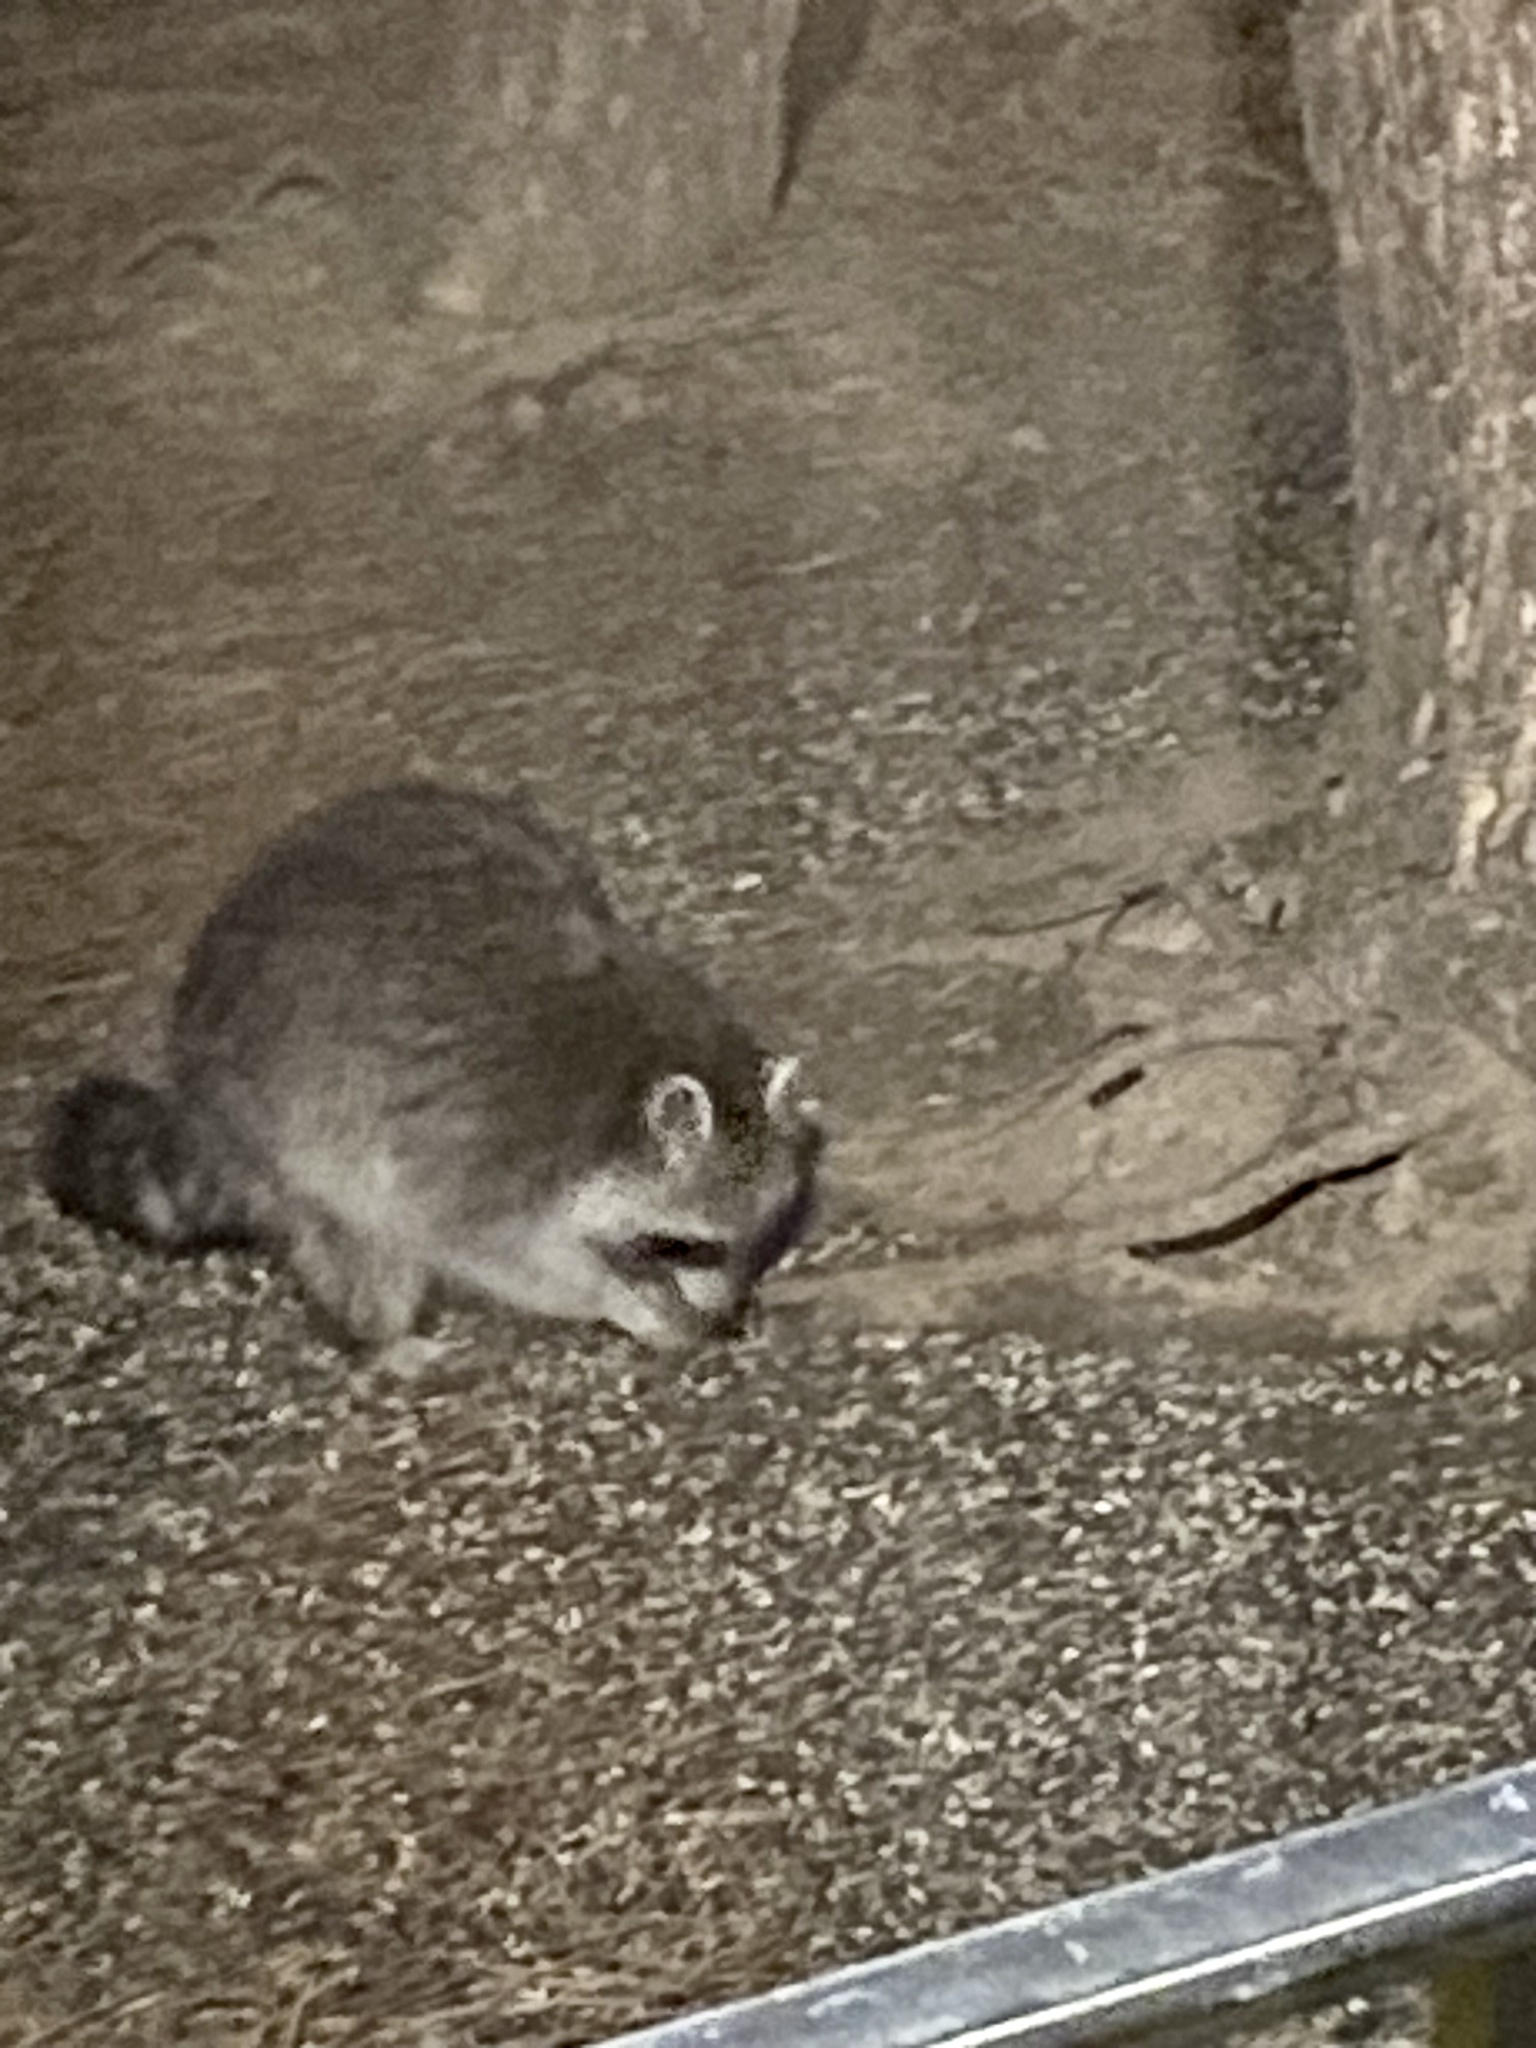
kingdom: Animalia
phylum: Chordata
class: Mammalia
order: Carnivora
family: Procyonidae
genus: Procyon
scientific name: Procyon lotor
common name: Raccoon
